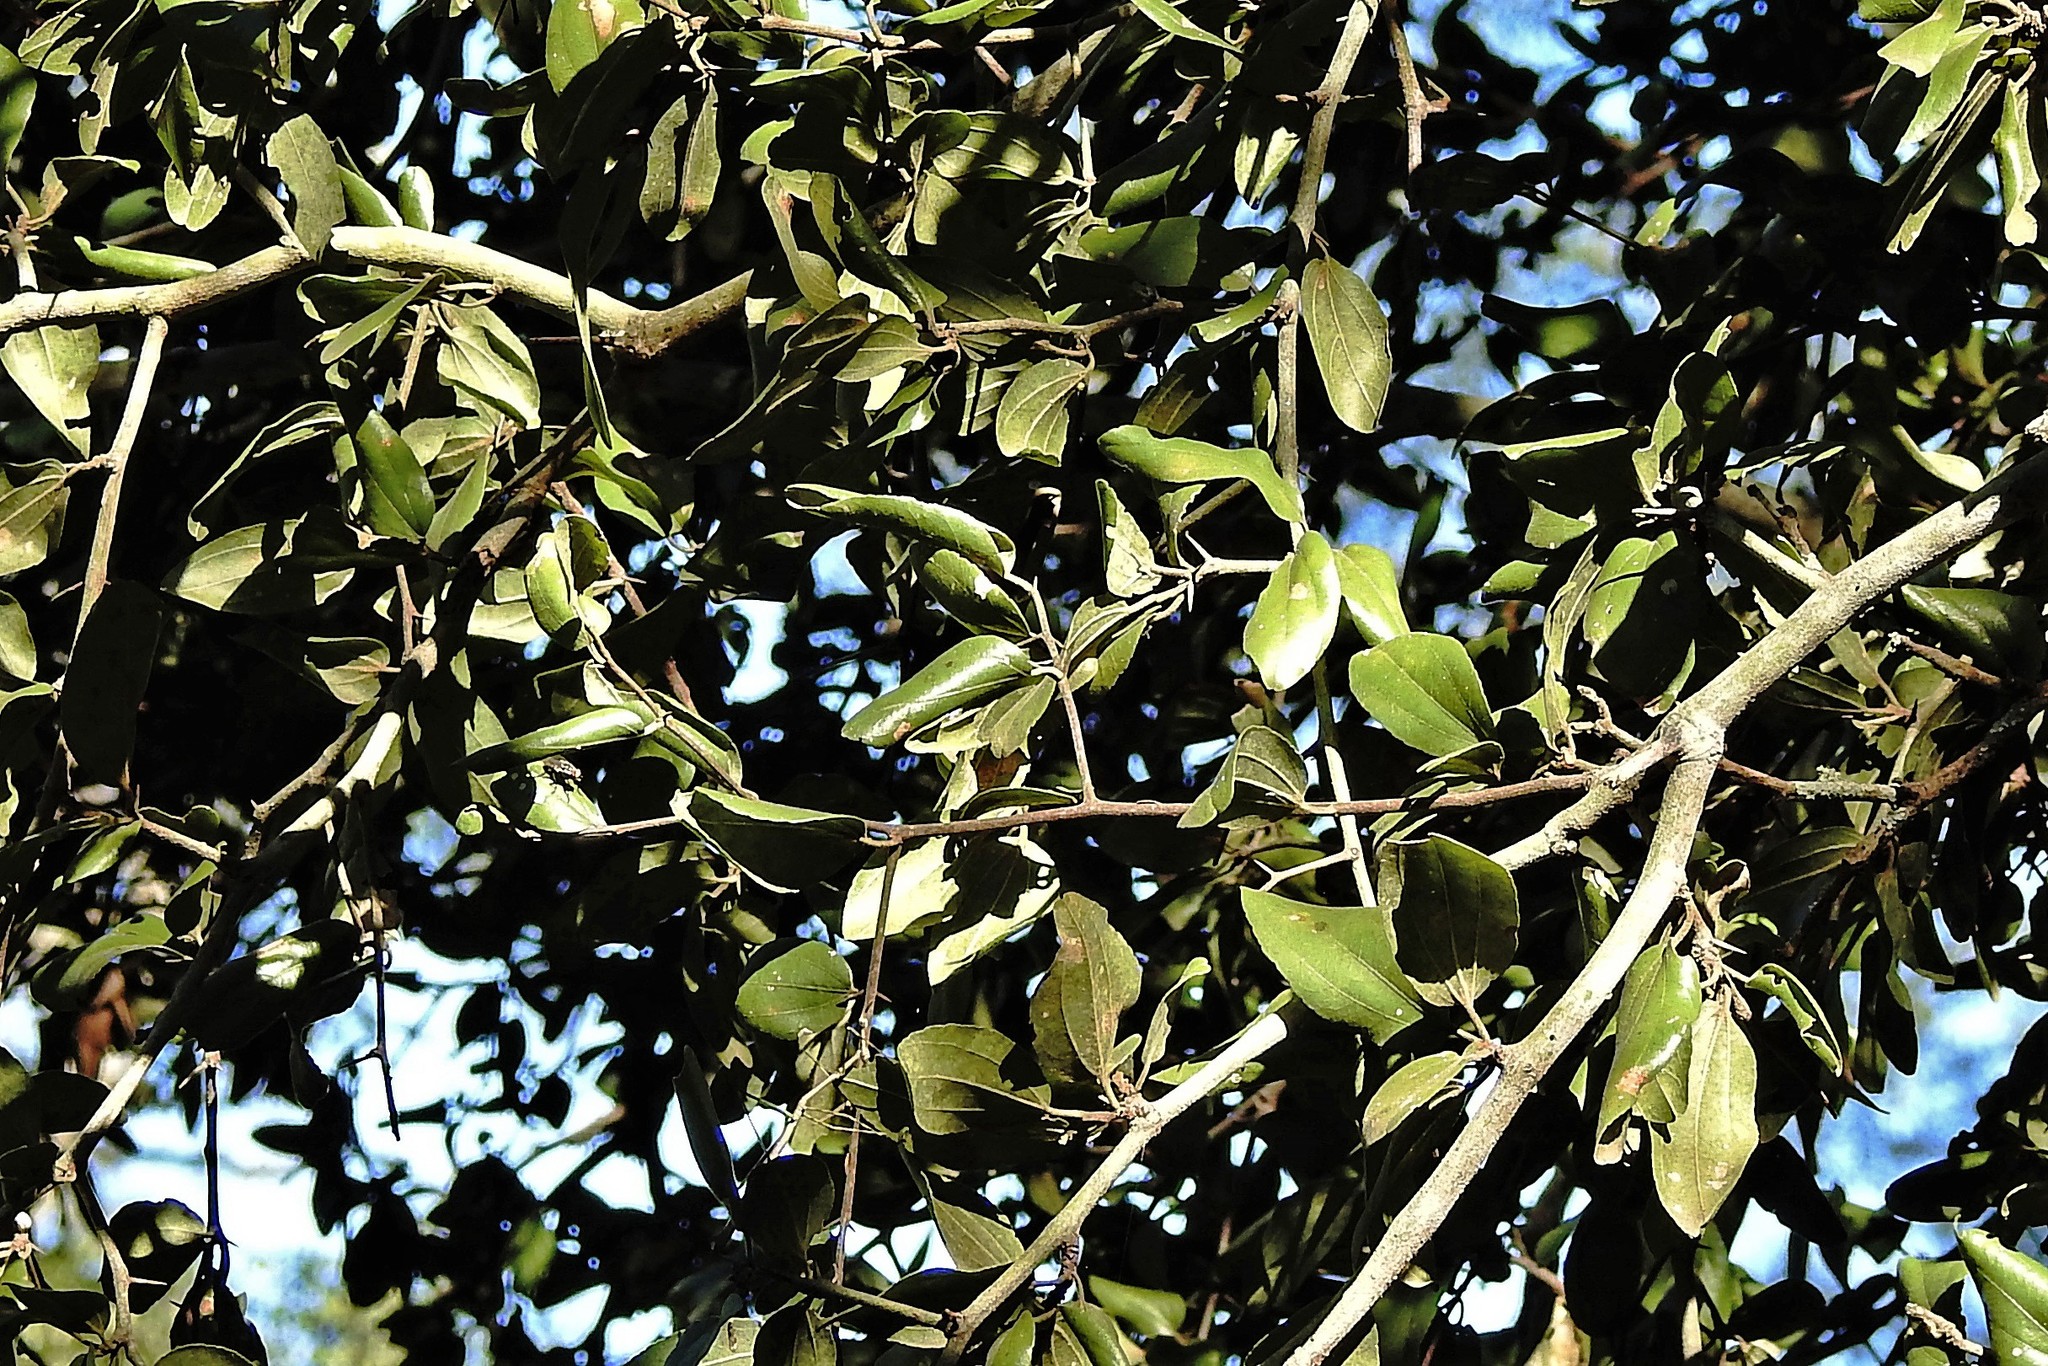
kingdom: Plantae
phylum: Tracheophyta
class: Magnoliopsida
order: Rosales
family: Rhamnaceae
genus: Sarcomphalus
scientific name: Sarcomphalus mistol
